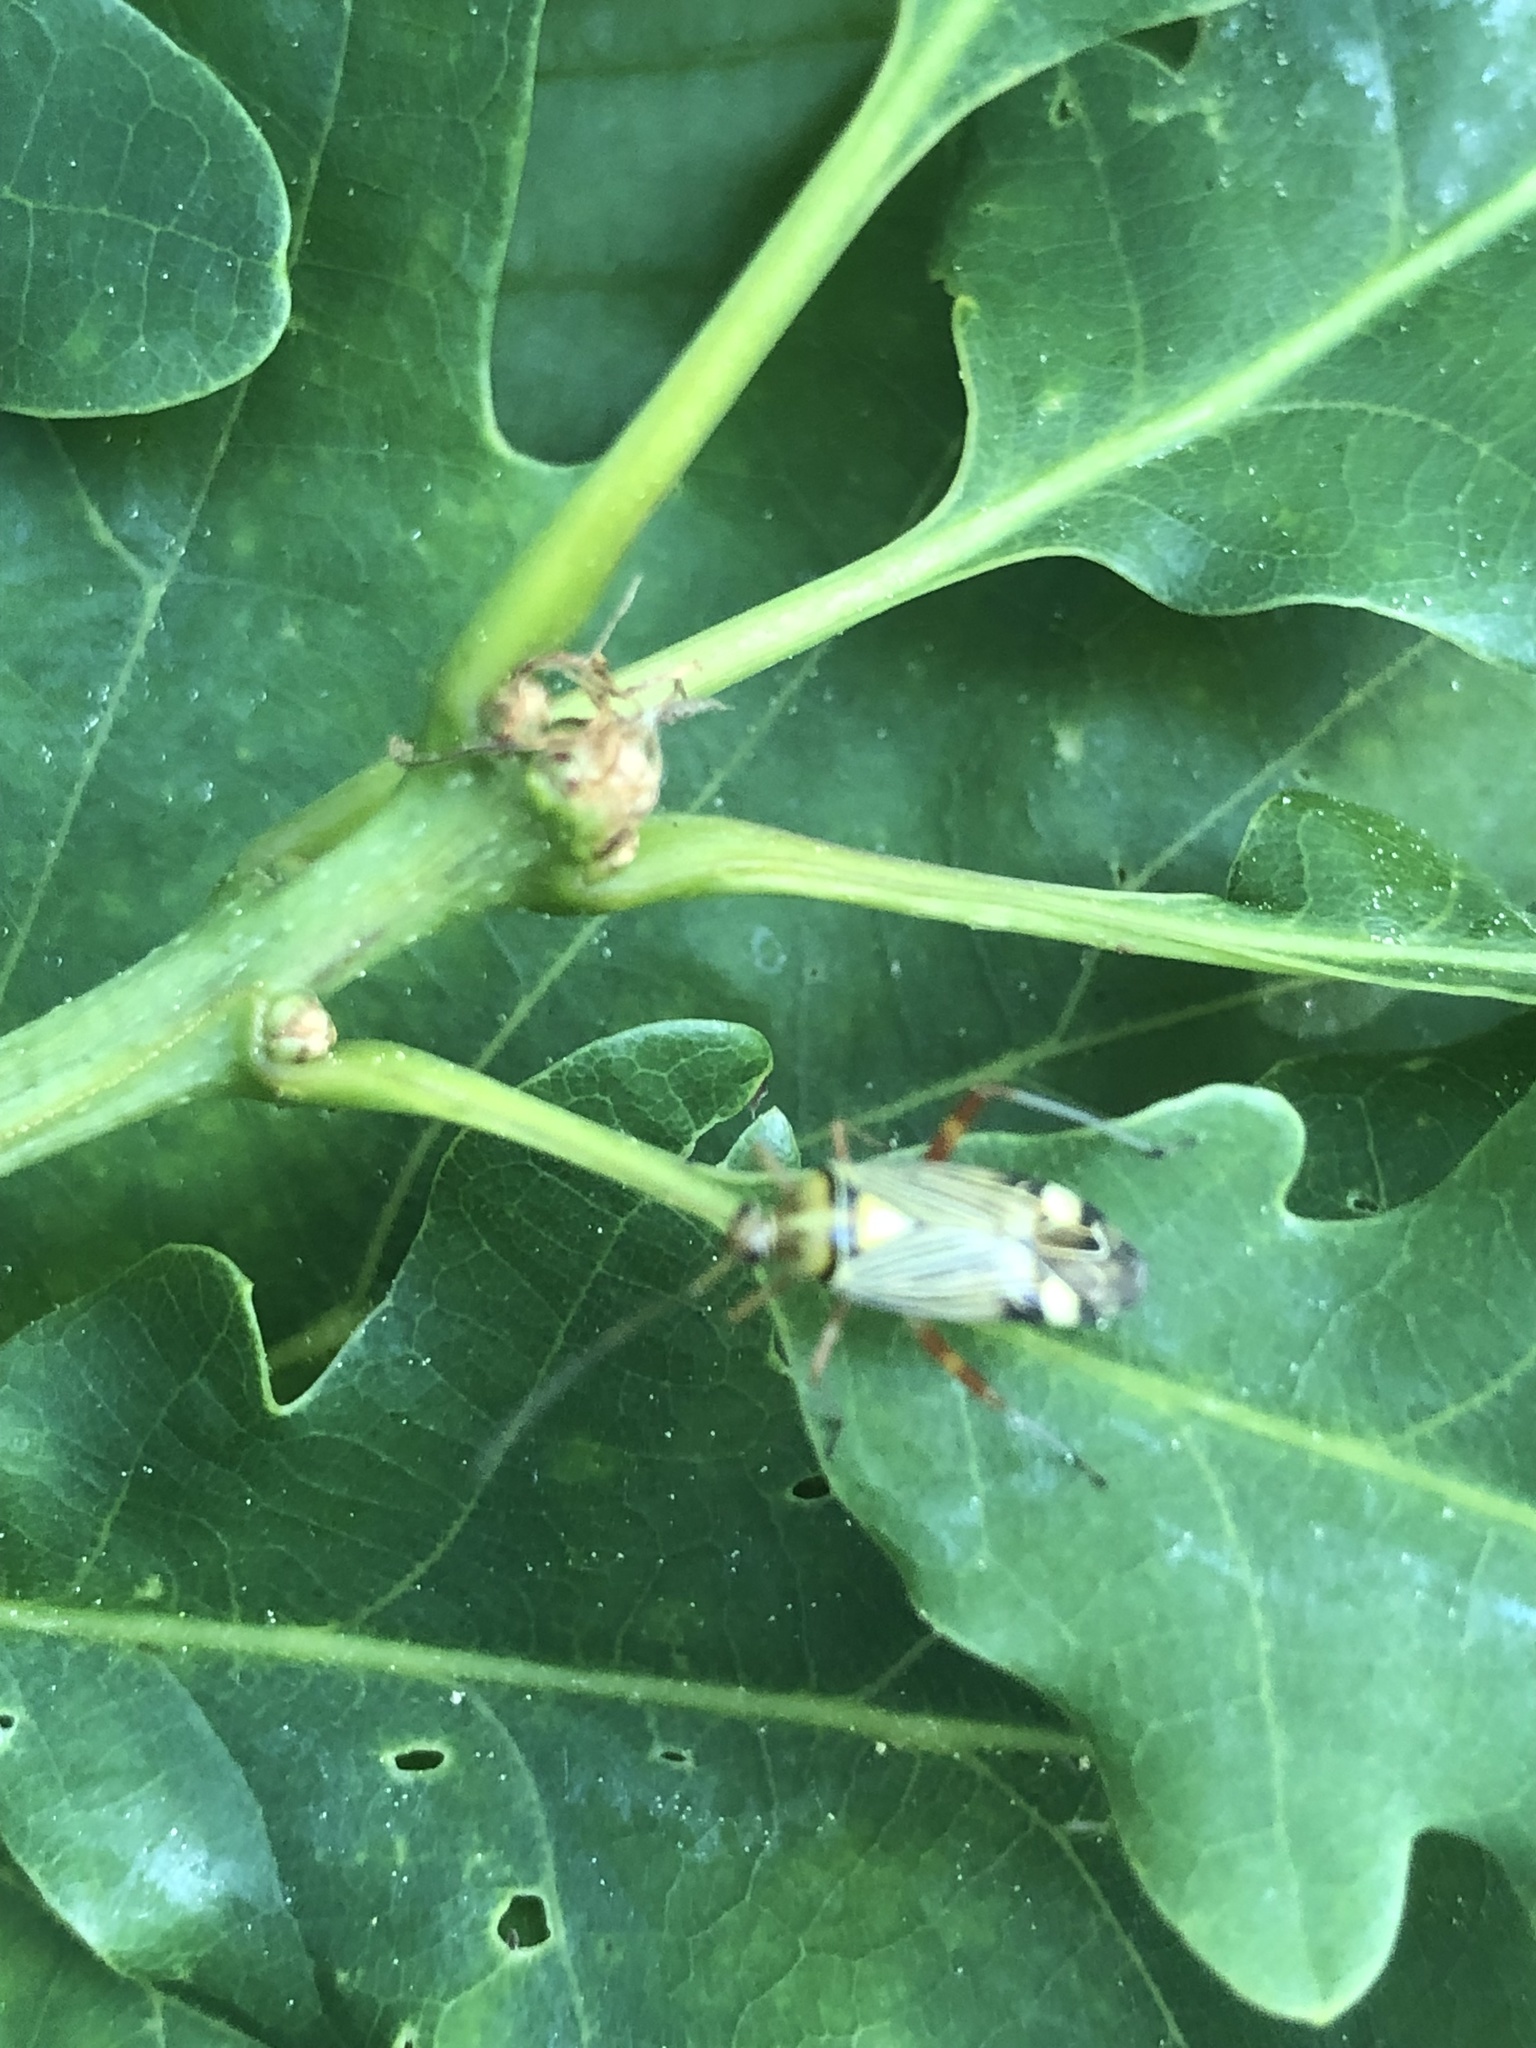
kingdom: Animalia
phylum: Arthropoda
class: Insecta
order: Hemiptera
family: Miridae
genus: Rhabdomiris
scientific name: Rhabdomiris striatellus
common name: Plant bug
